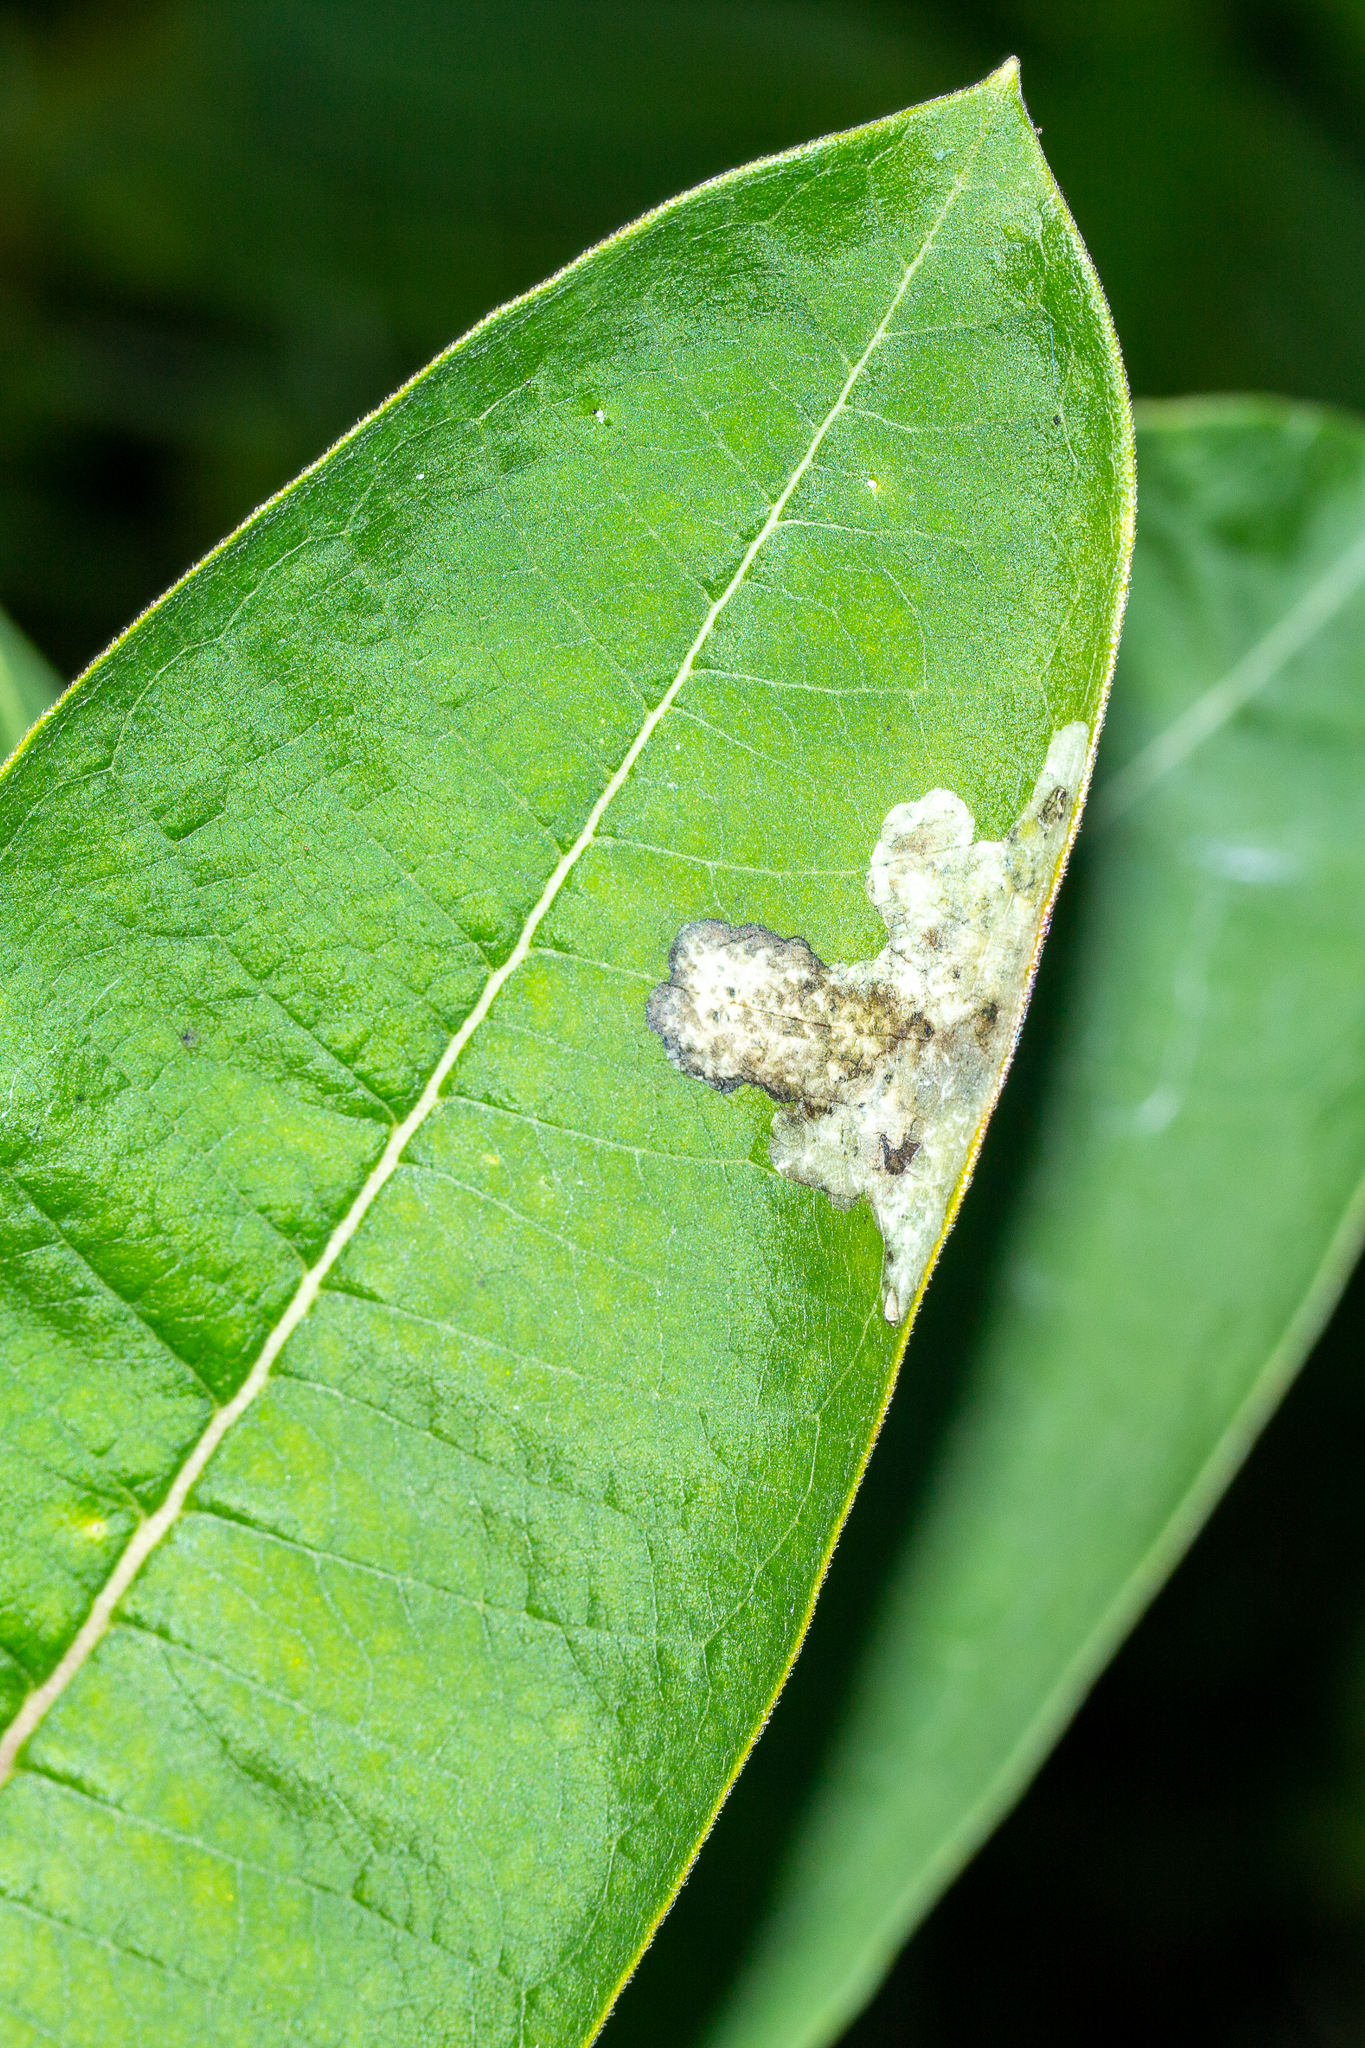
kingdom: Animalia
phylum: Arthropoda
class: Insecta
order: Diptera
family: Agromyzidae
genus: Liriomyza
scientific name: Liriomyza asclepiadis
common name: Milkweed leaf-miner fly
